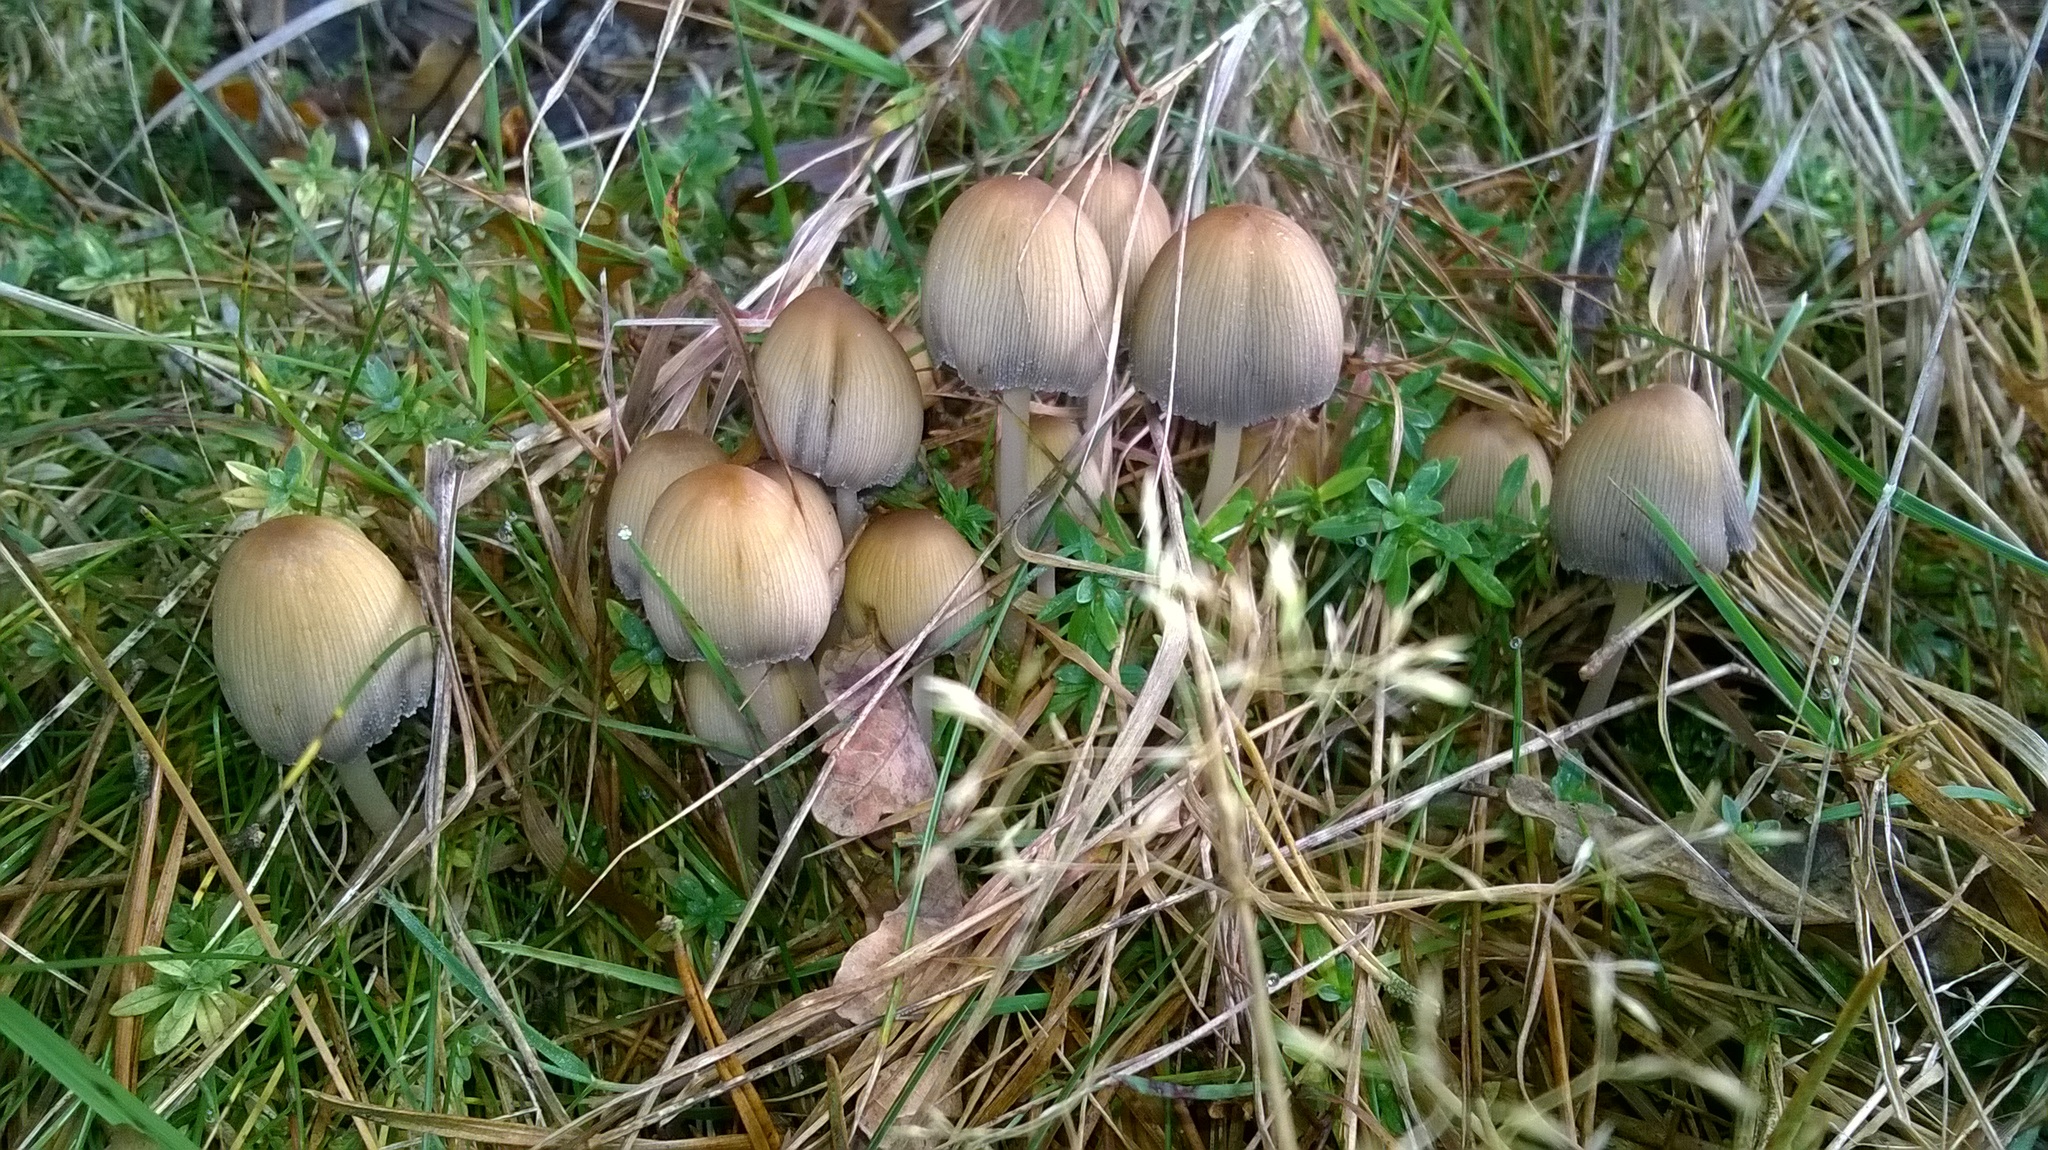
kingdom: Fungi
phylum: Basidiomycota
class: Agaricomycetes
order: Agaricales
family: Psathyrellaceae
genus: Coprinellus
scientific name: Coprinellus micaceus
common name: Glistening ink-cap
